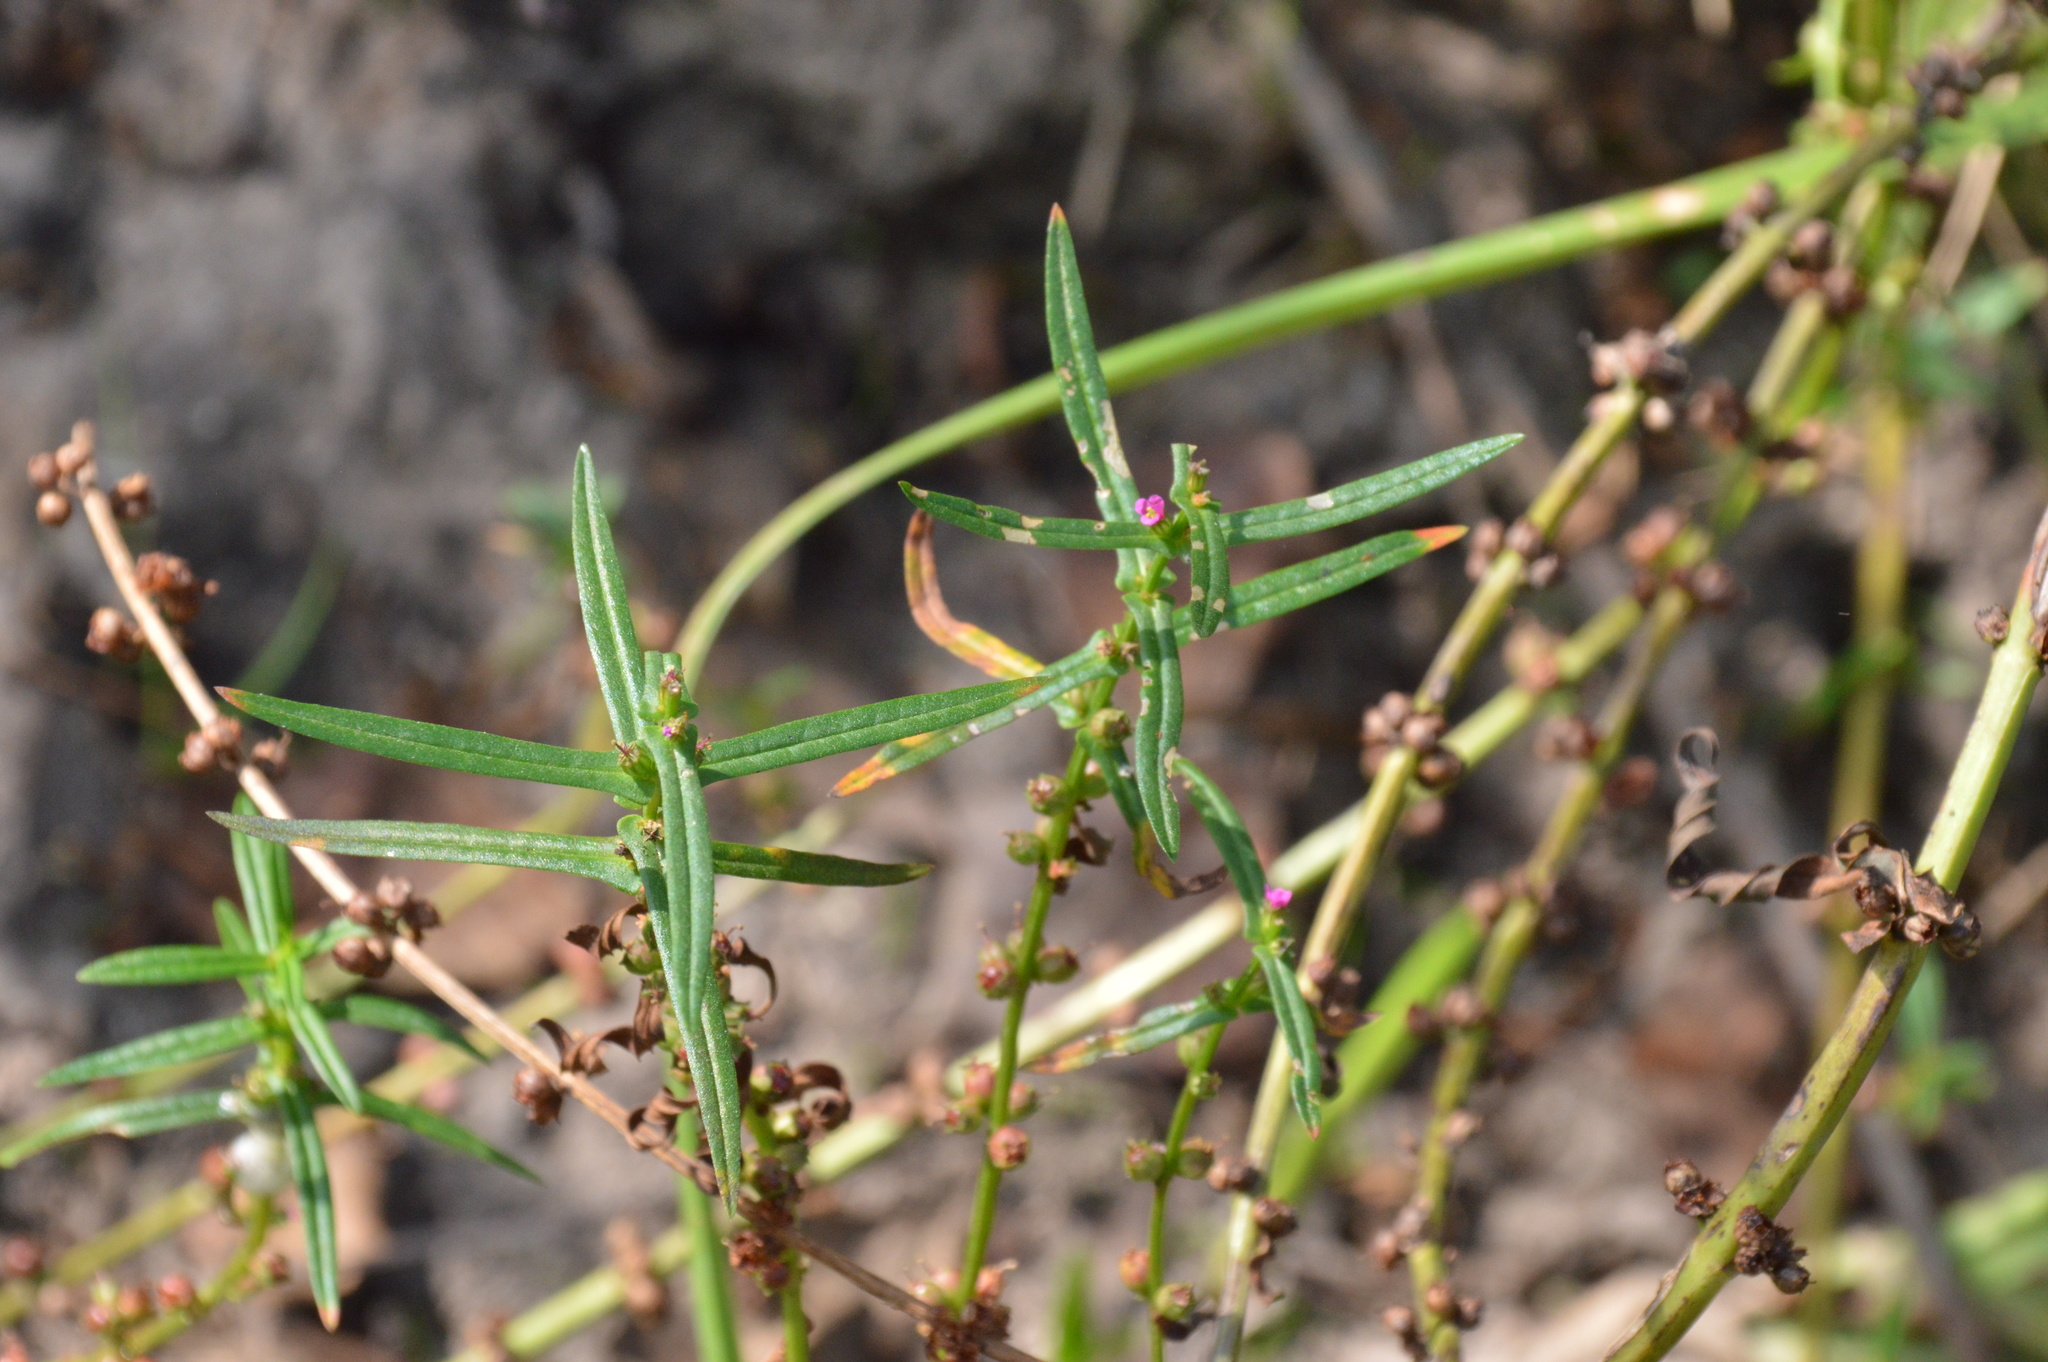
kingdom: Plantae
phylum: Tracheophyta
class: Magnoliopsida
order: Myrtales
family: Lythraceae
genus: Ammannia
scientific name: Ammannia coccinea
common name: Valley redstem
